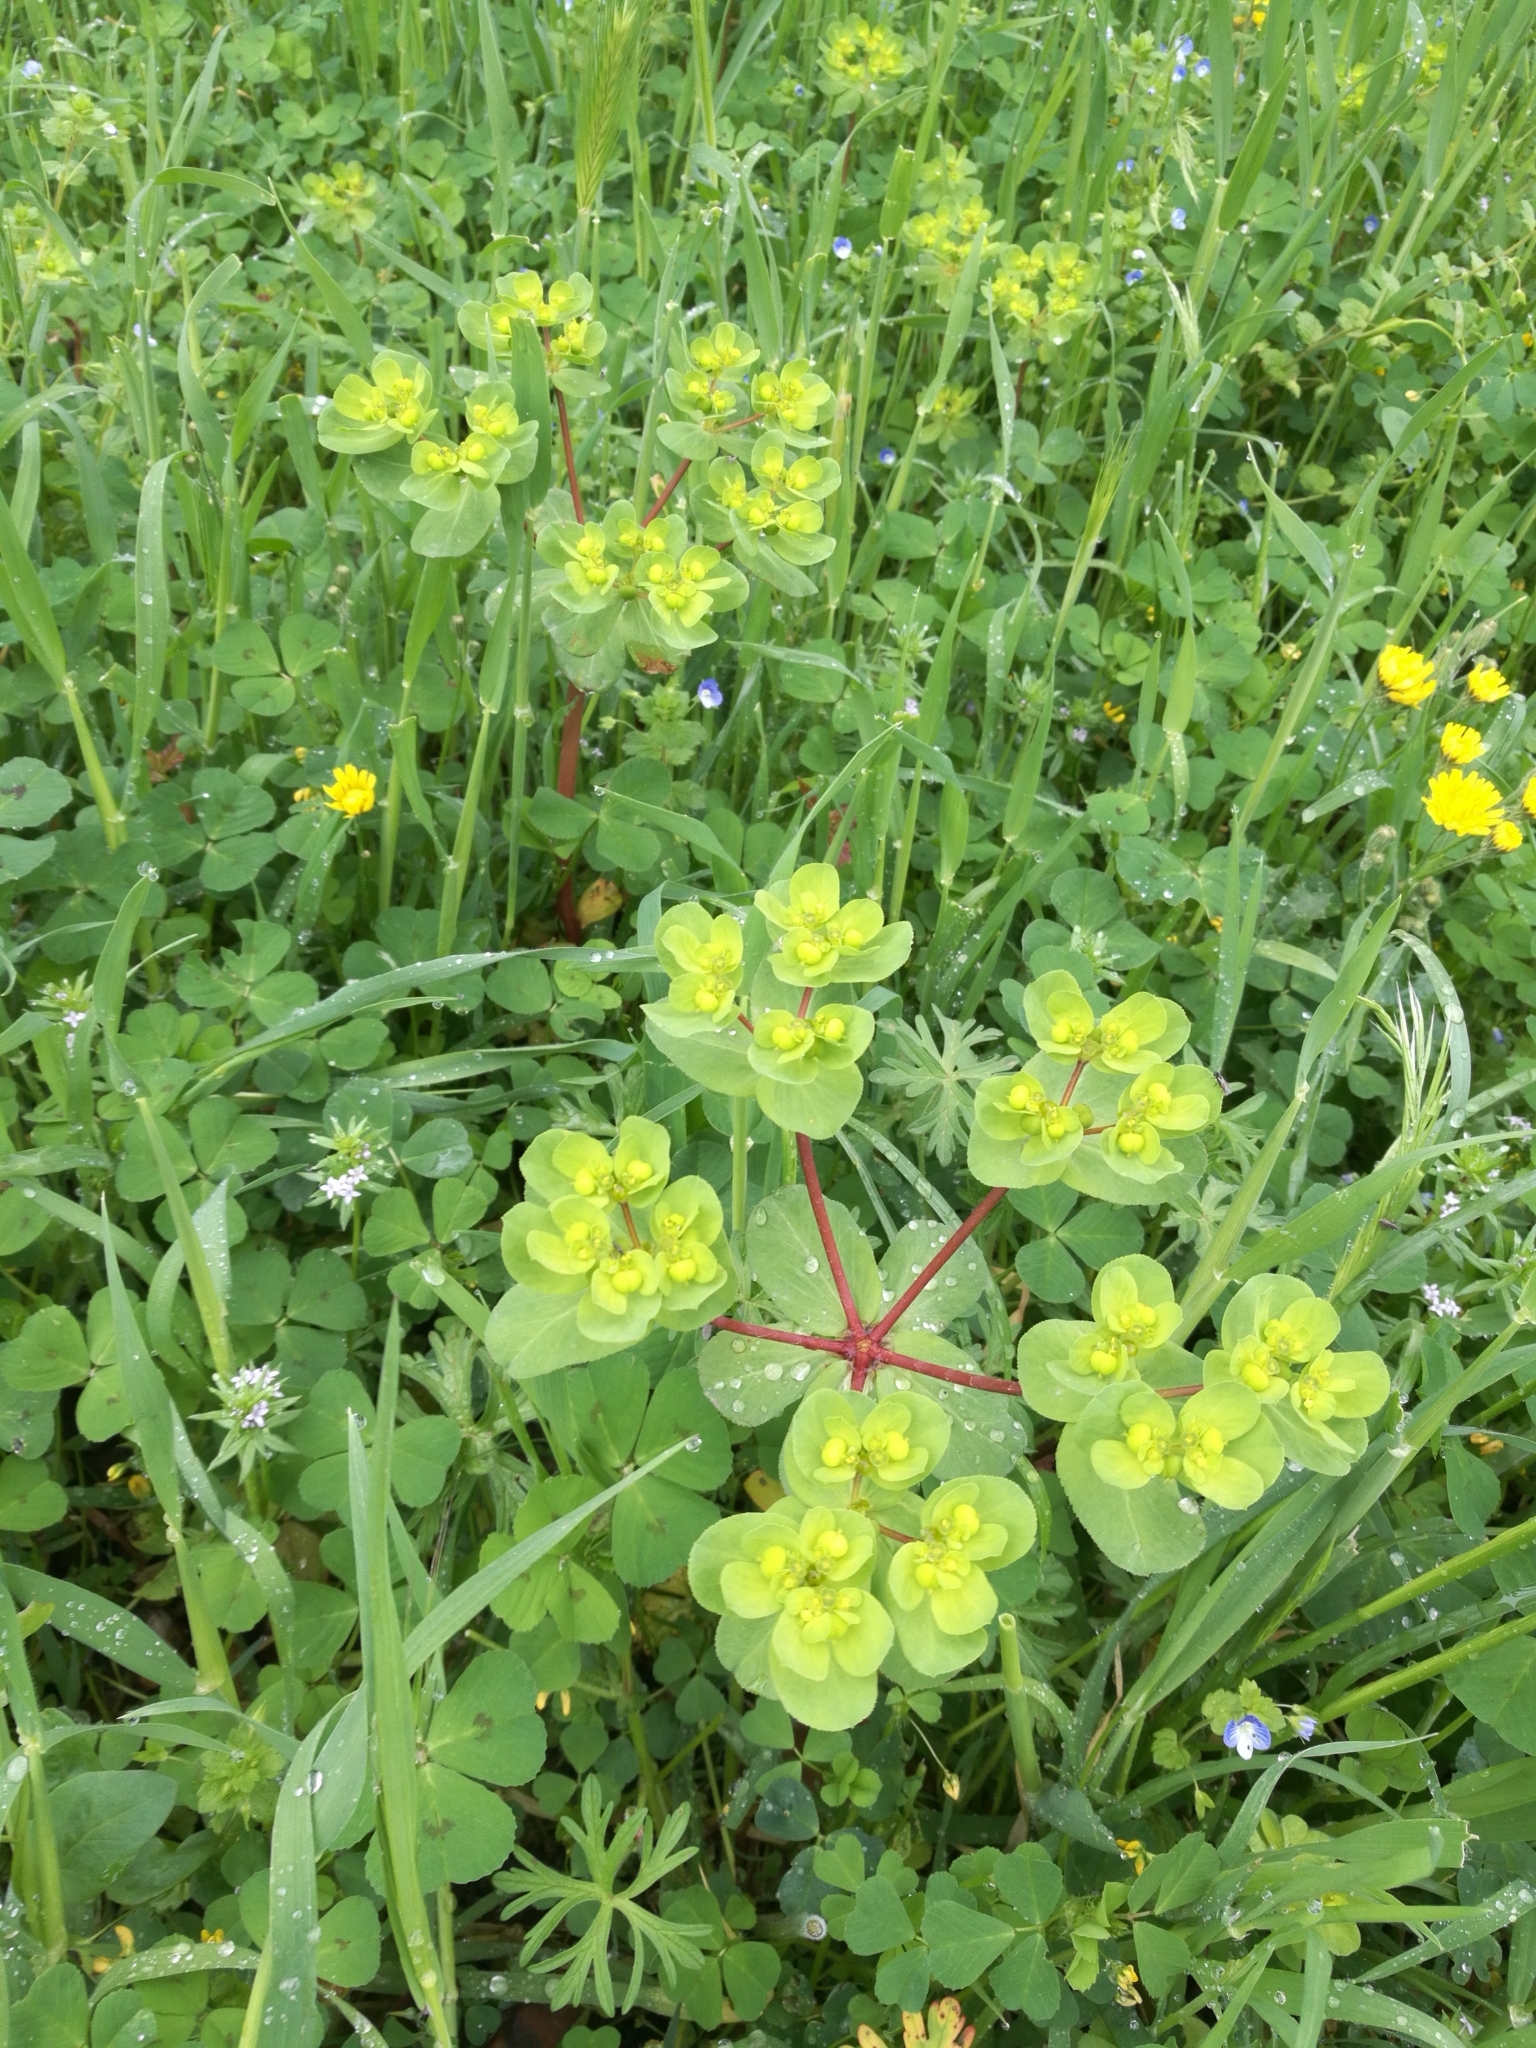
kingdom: Plantae
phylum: Tracheophyta
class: Magnoliopsida
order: Malpighiales
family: Euphorbiaceae
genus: Euphorbia
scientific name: Euphorbia helioscopia
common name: Sun spurge
